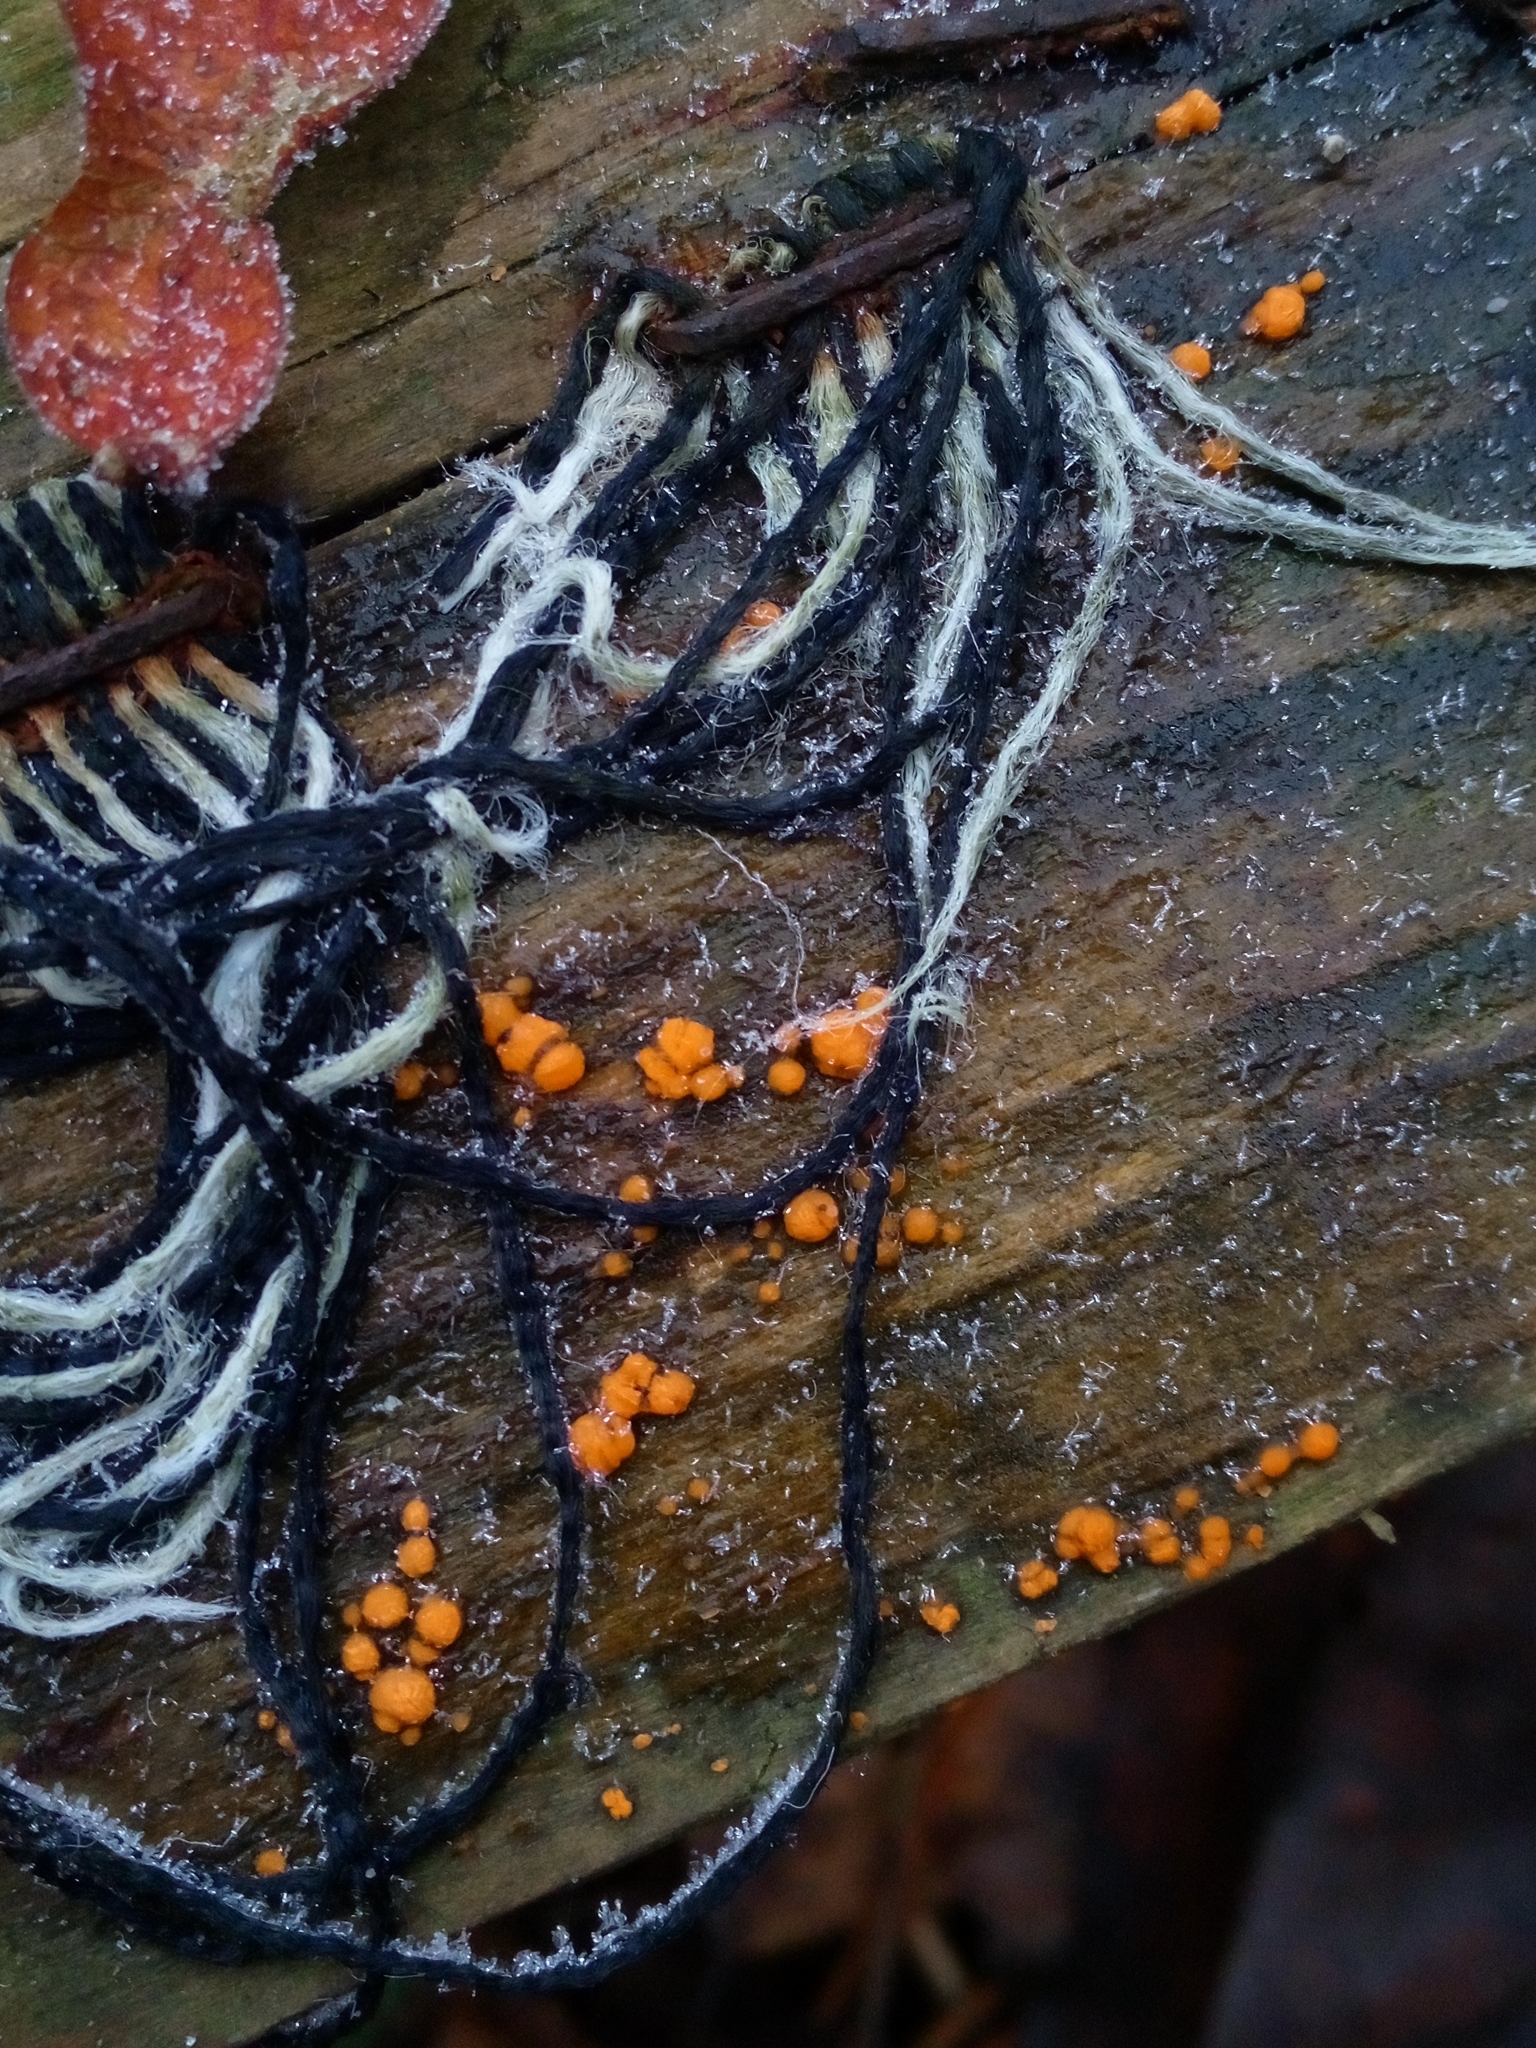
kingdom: Fungi
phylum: Basidiomycota
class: Dacrymycetes
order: Dacrymycetales
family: Dacrymycetaceae
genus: Dacrymyces
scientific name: Dacrymyces stillatus
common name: Common jelly spot
